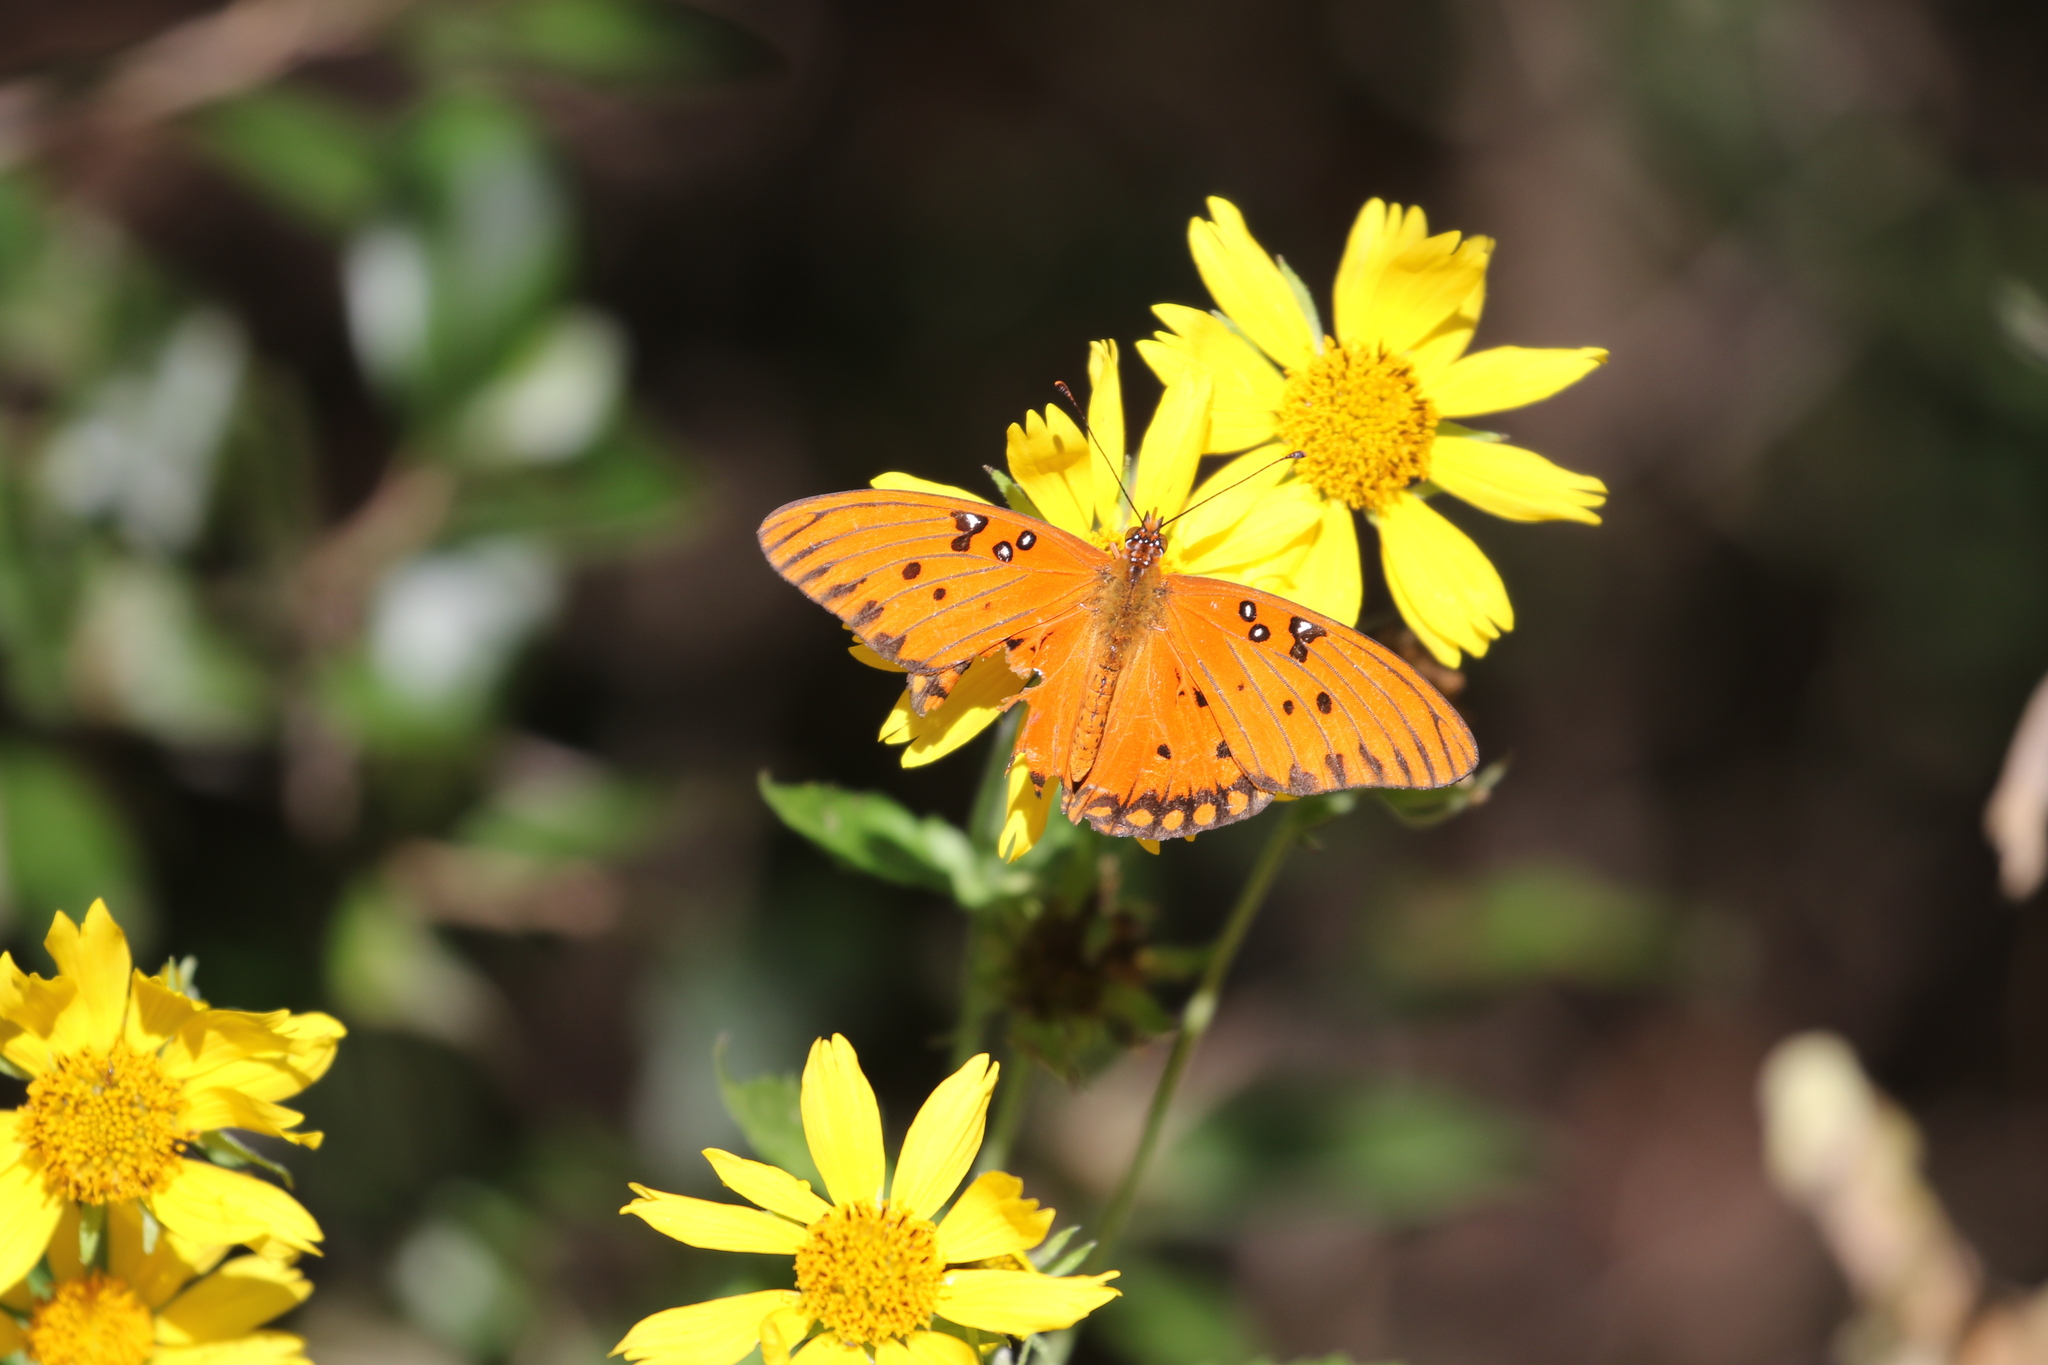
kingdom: Animalia
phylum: Arthropoda
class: Insecta
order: Lepidoptera
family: Nymphalidae
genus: Dione
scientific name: Dione vanillae
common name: Gulf fritillary
